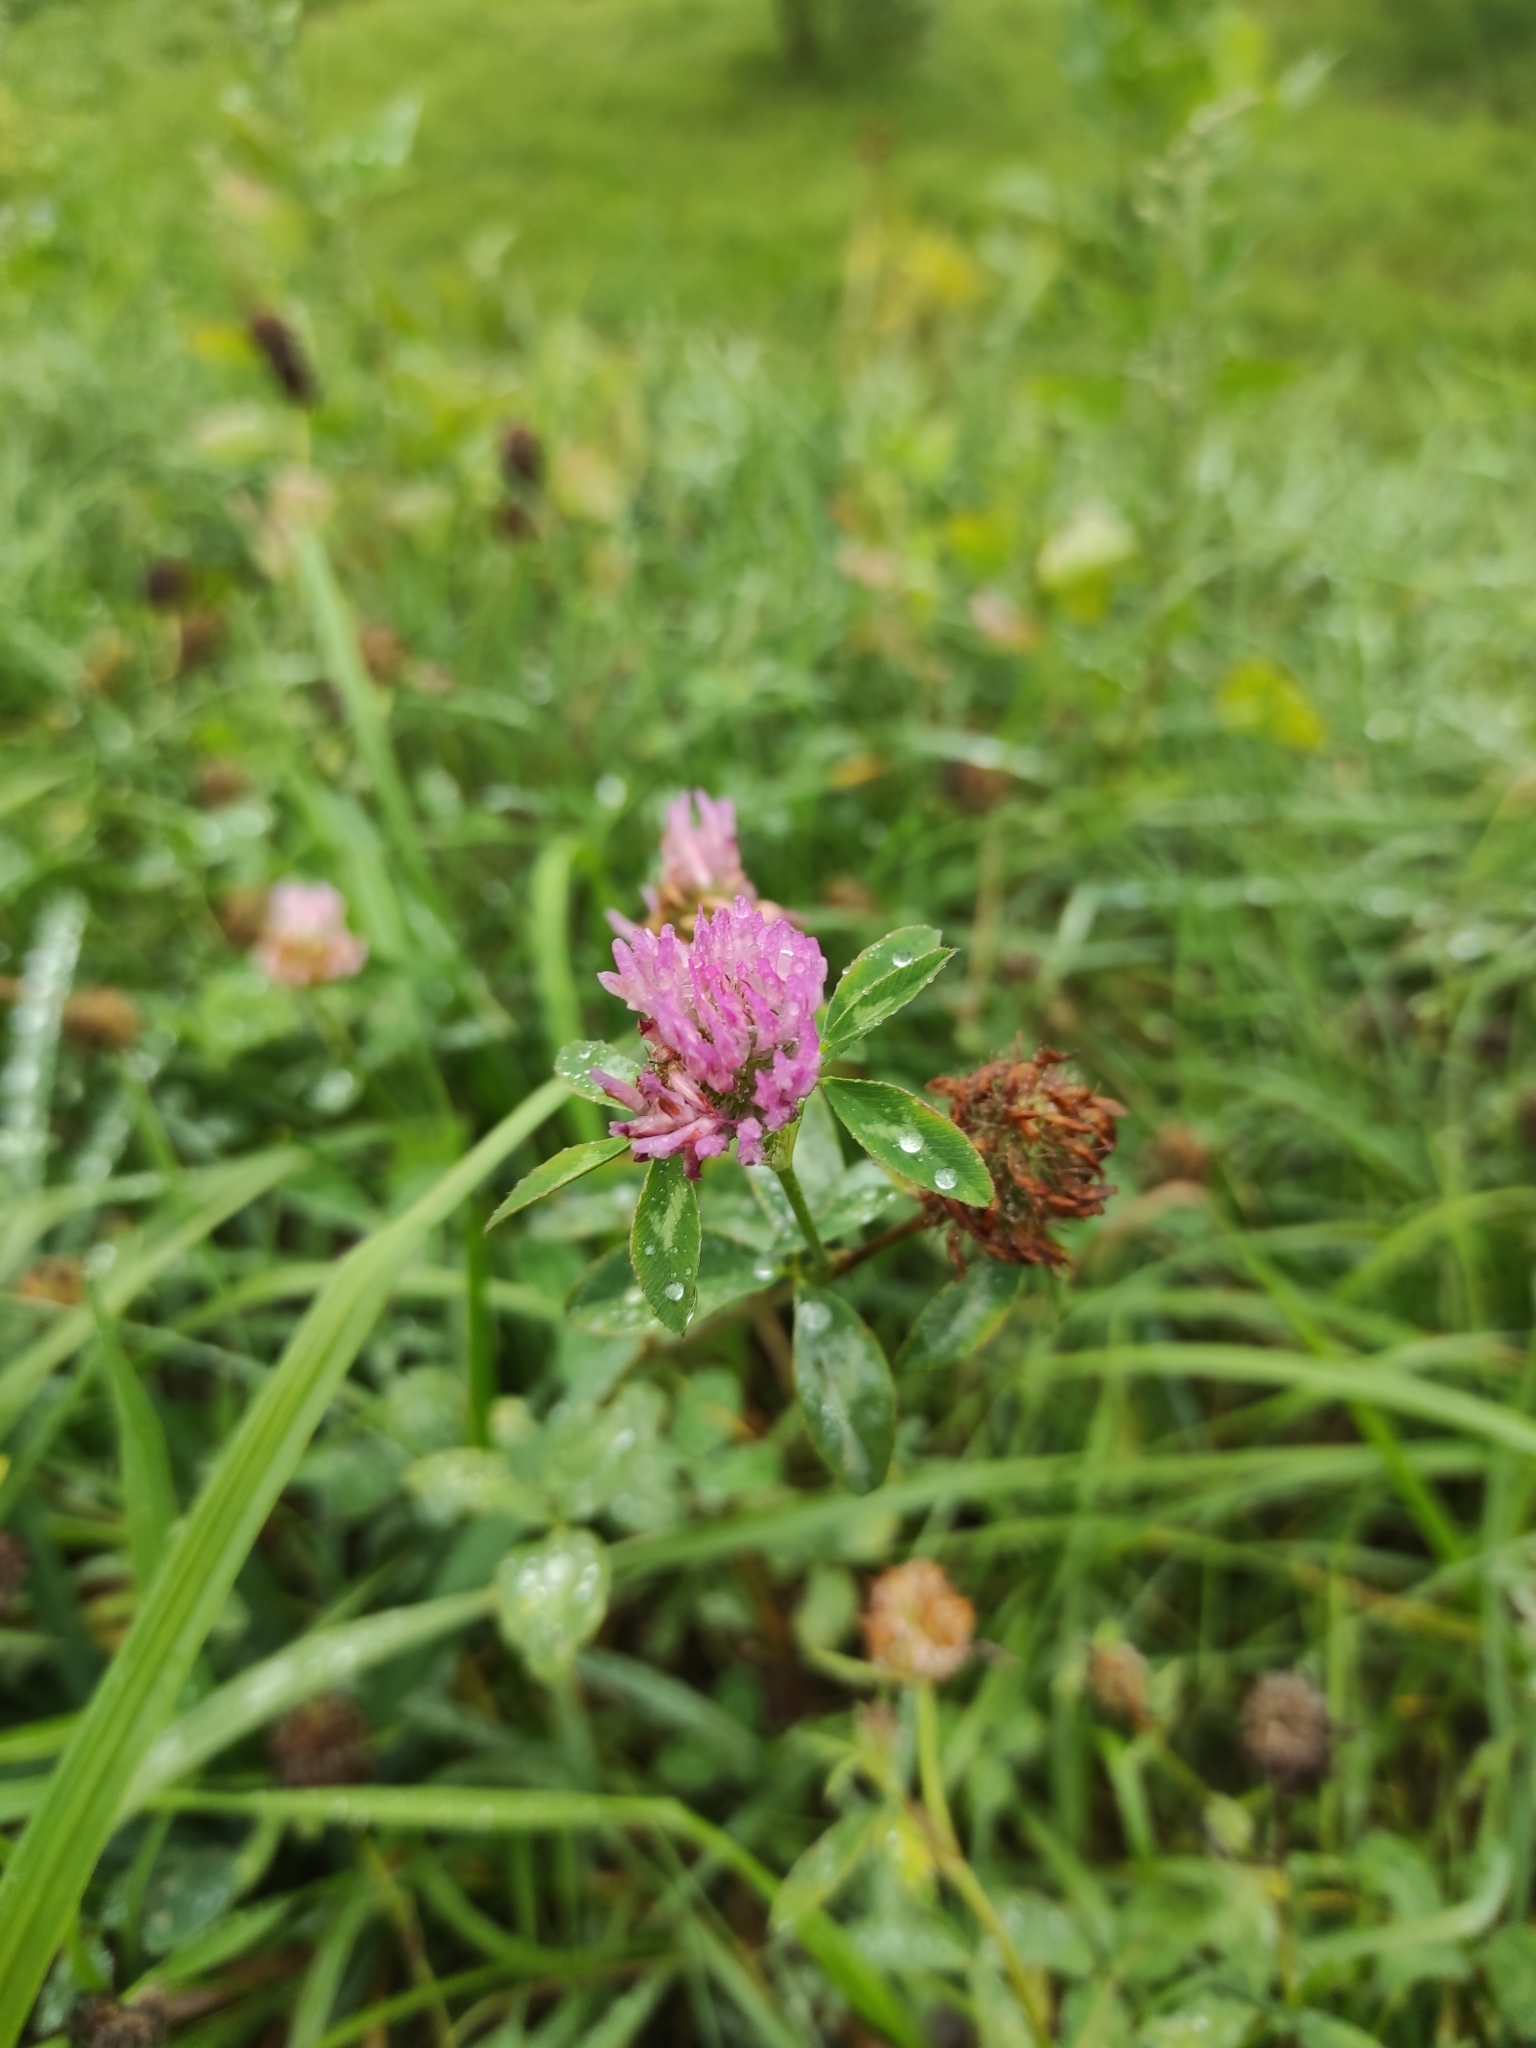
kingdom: Plantae
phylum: Tracheophyta
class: Magnoliopsida
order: Fabales
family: Fabaceae
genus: Trifolium
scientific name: Trifolium pratense
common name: Red clover
